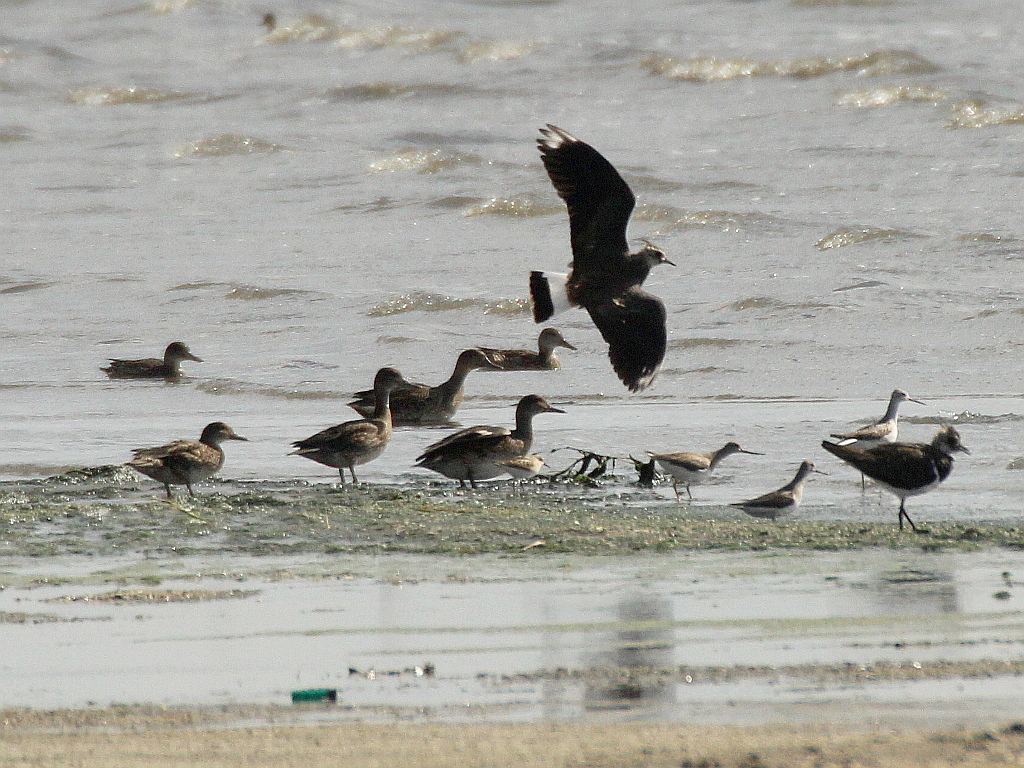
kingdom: Animalia
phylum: Chordata
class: Aves
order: Charadriiformes
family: Charadriidae
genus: Vanellus
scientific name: Vanellus vanellus
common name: Northern lapwing
